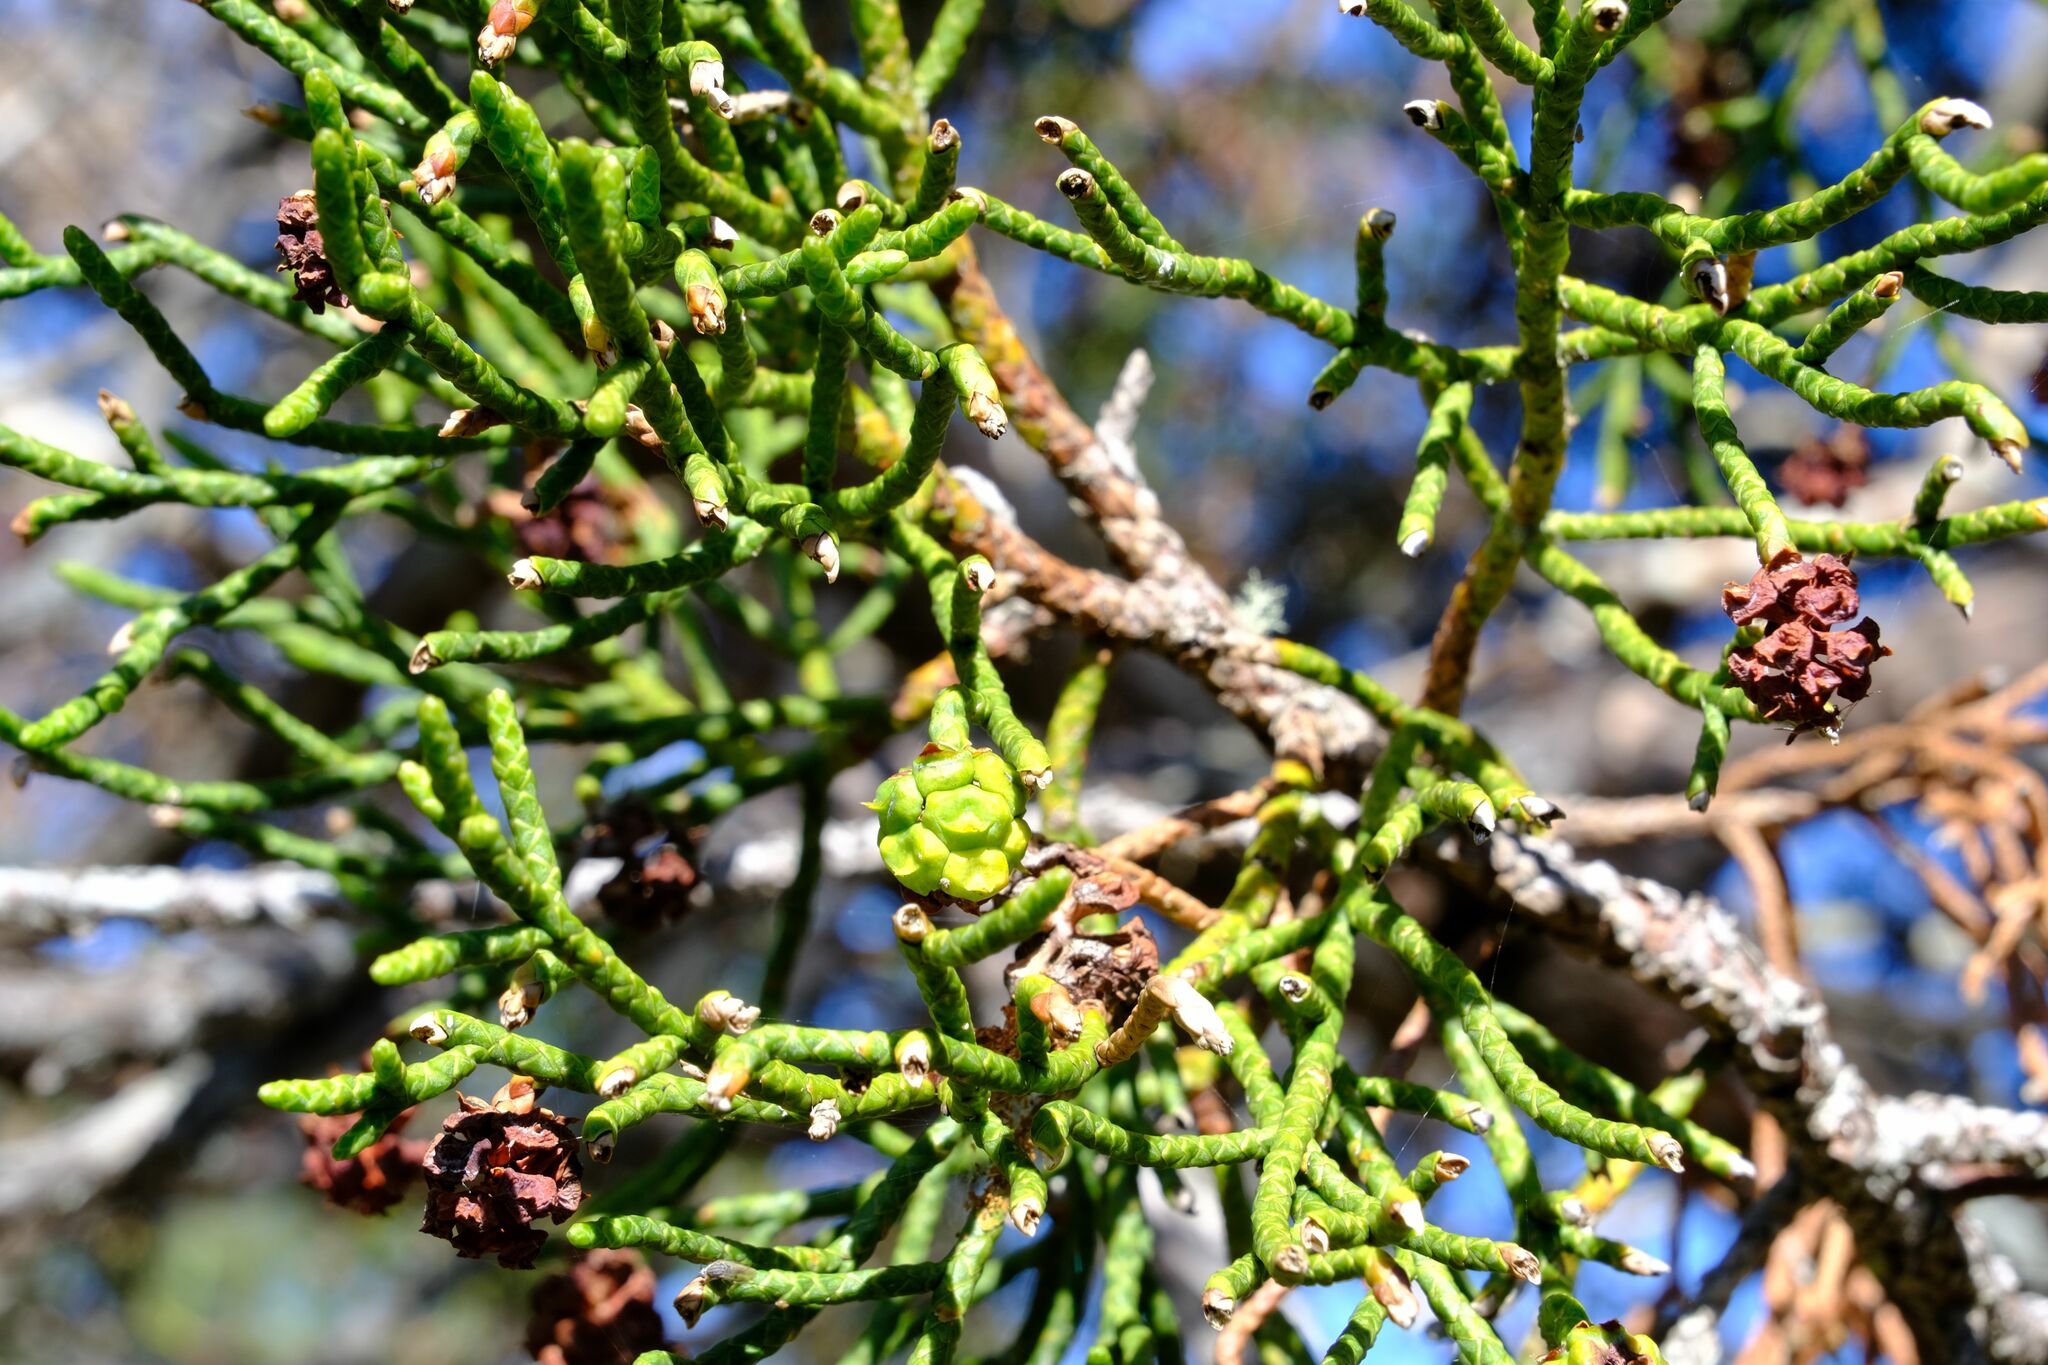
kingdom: Plantae
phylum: Tracheophyta
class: Pinopsida
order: Pinales
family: Cupressaceae
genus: Athrotaxis
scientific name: Athrotaxis cupressoides
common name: Tasmanian pencil pine
